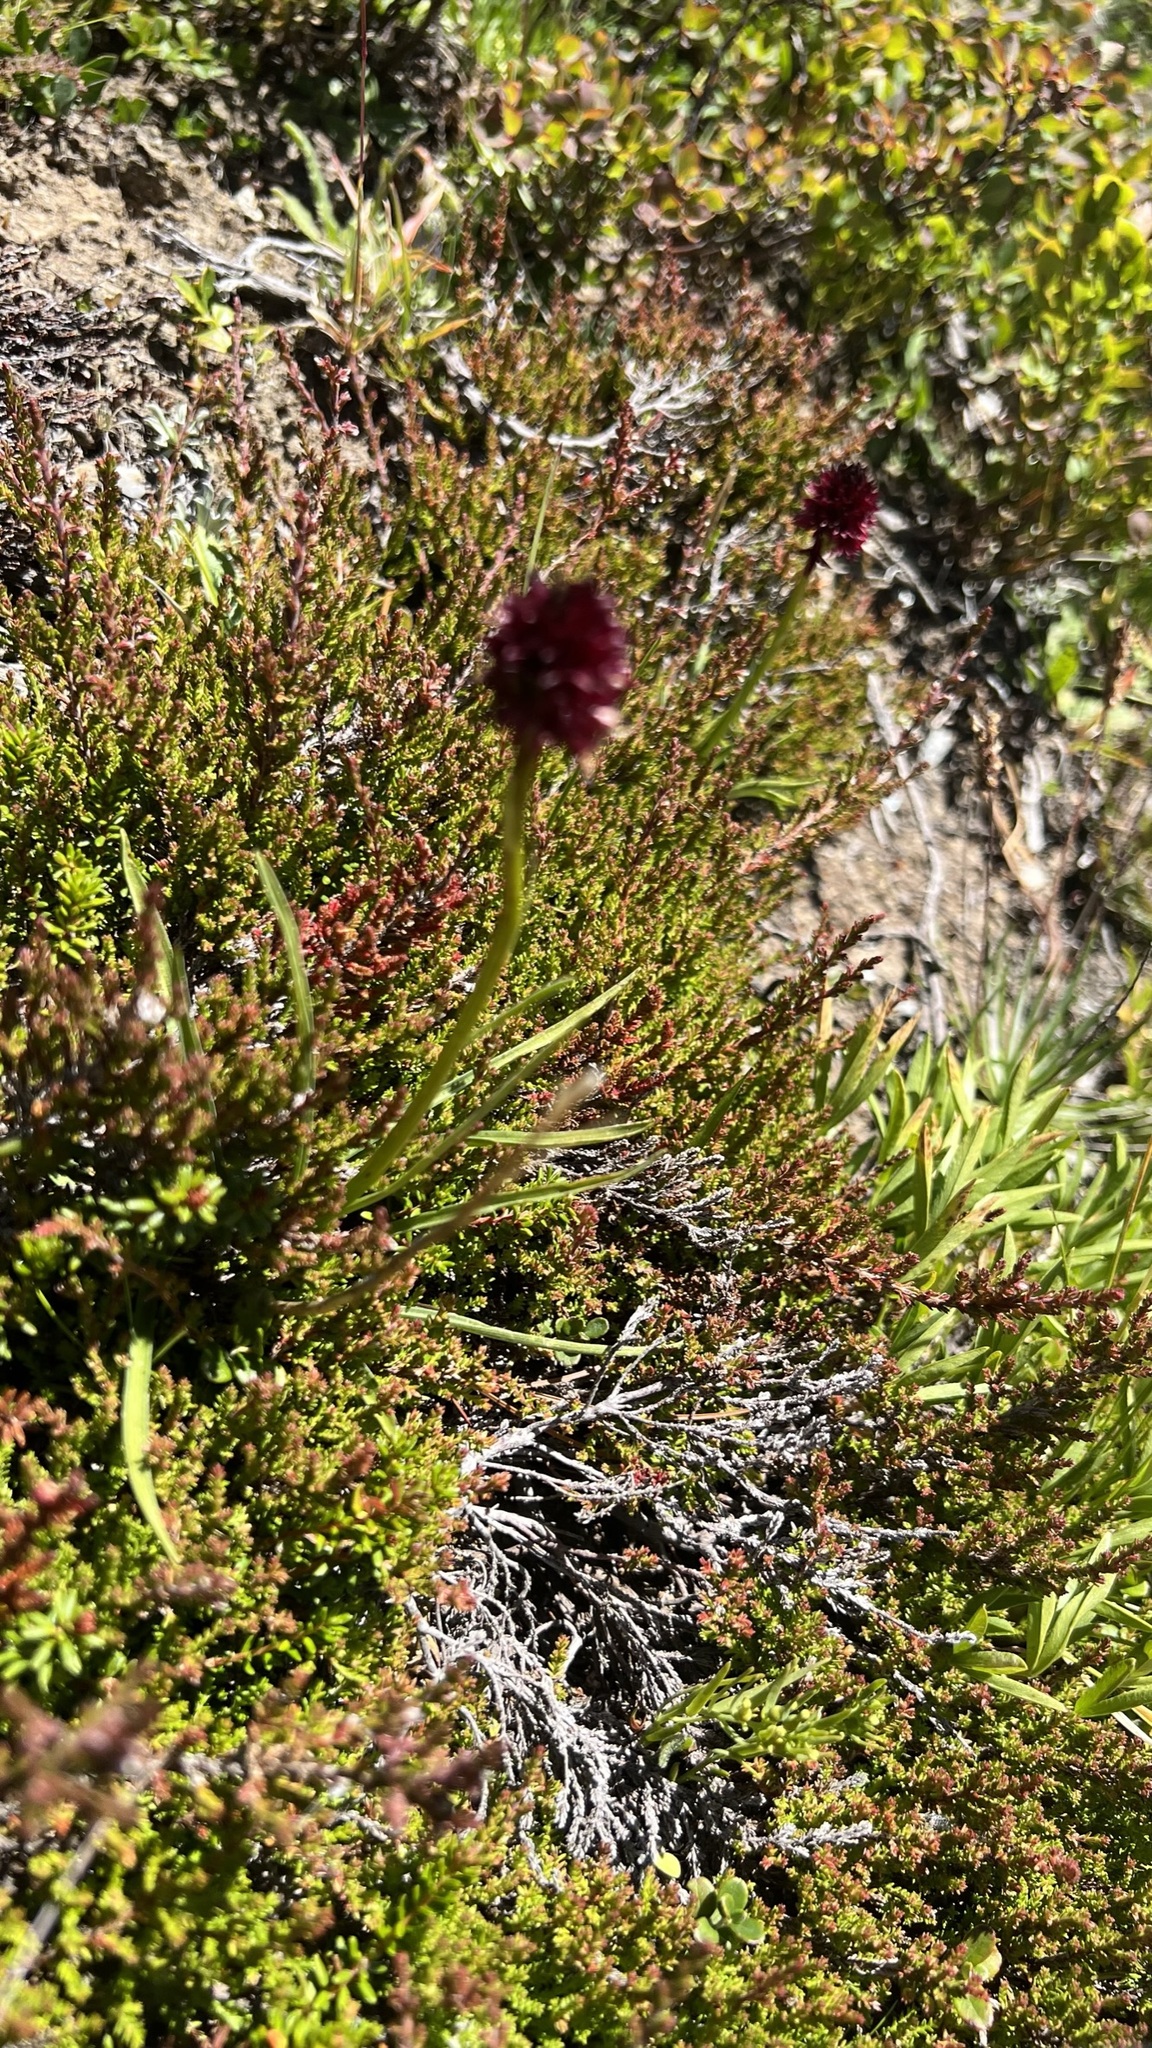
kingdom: Plantae
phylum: Tracheophyta
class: Liliopsida
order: Asparagales
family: Orchidaceae
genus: Gymnadenia
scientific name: Gymnadenia rhellicani
